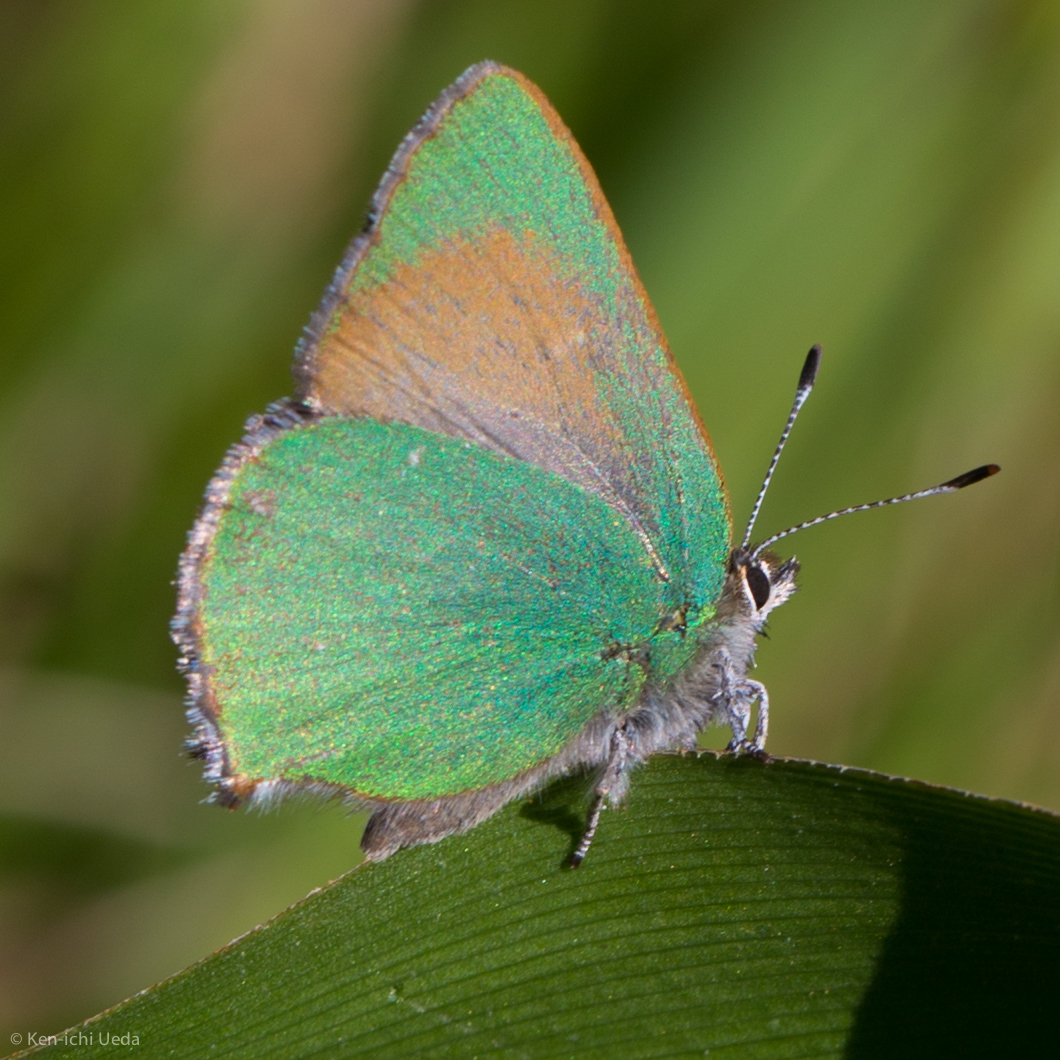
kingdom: Animalia
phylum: Arthropoda
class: Insecta
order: Lepidoptera
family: Lycaenidae
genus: Callophrys
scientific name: Callophrys dumetorum
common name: Bramble hairstreak
